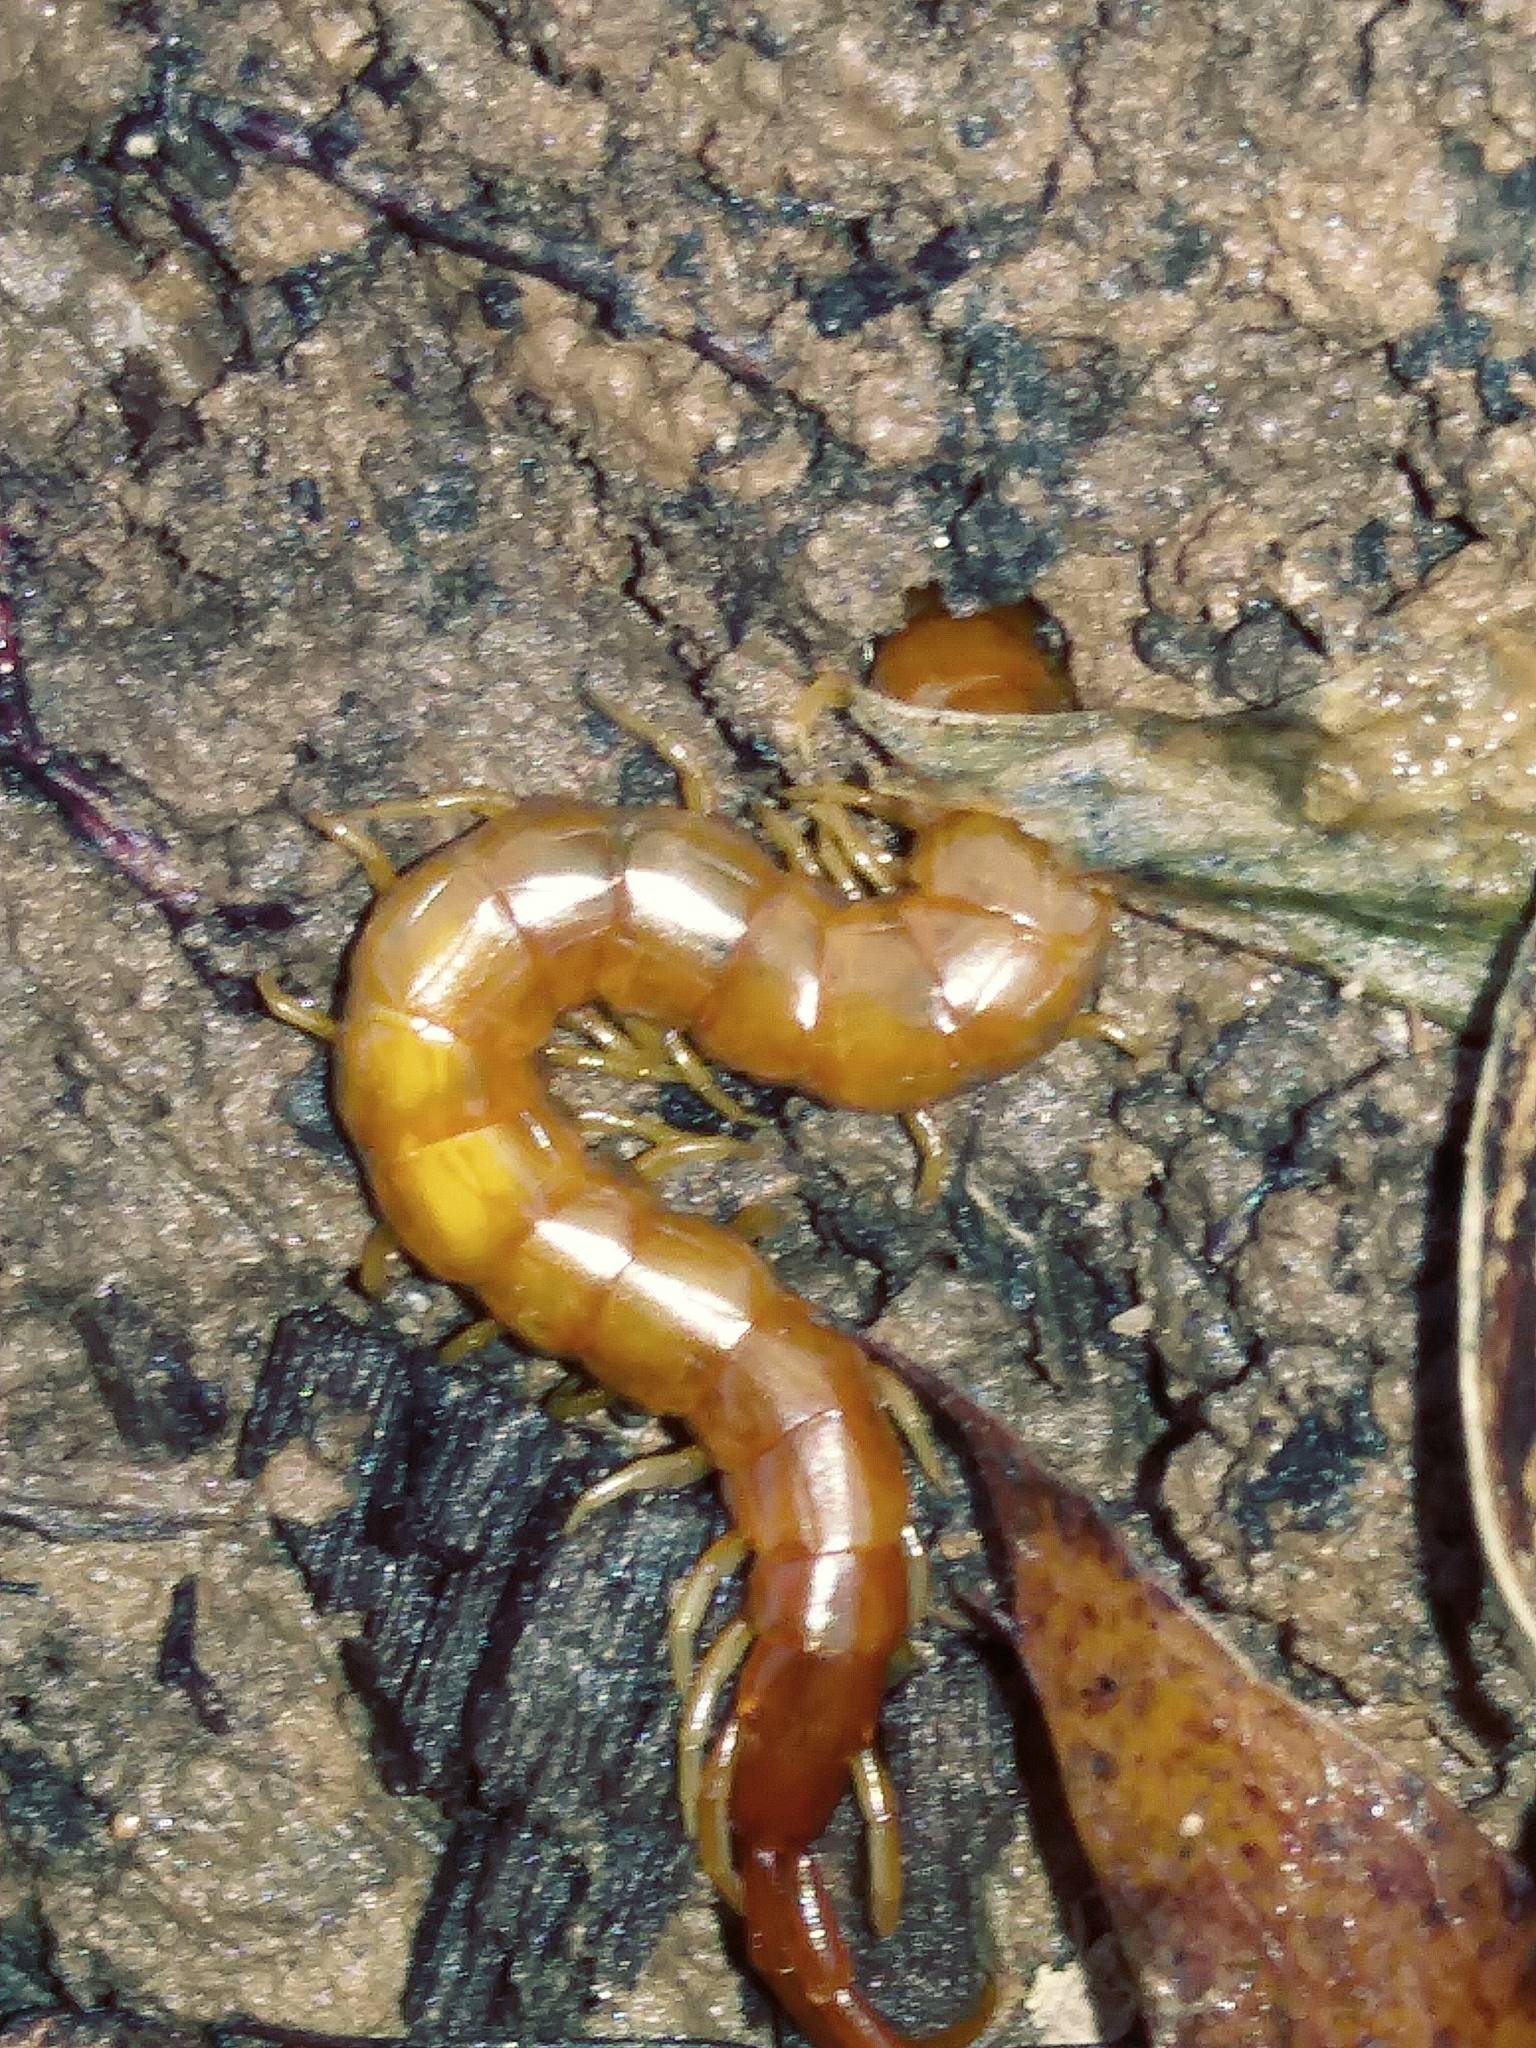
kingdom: Animalia
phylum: Arthropoda
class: Chilopoda
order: Scolopendromorpha
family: Scolopocryptopidae
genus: Scolopocryptops
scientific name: Scolopocryptops peregrinator
